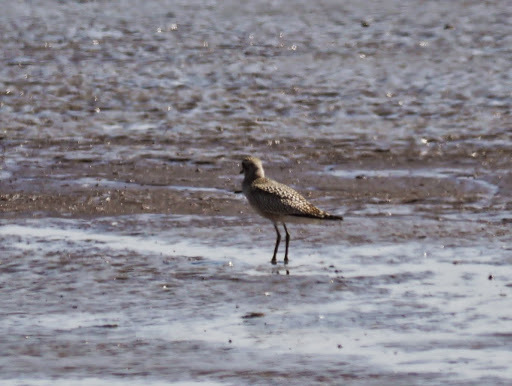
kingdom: Animalia
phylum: Chordata
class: Aves
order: Charadriiformes
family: Charadriidae
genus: Pluvialis
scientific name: Pluvialis squatarola
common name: Grey plover
